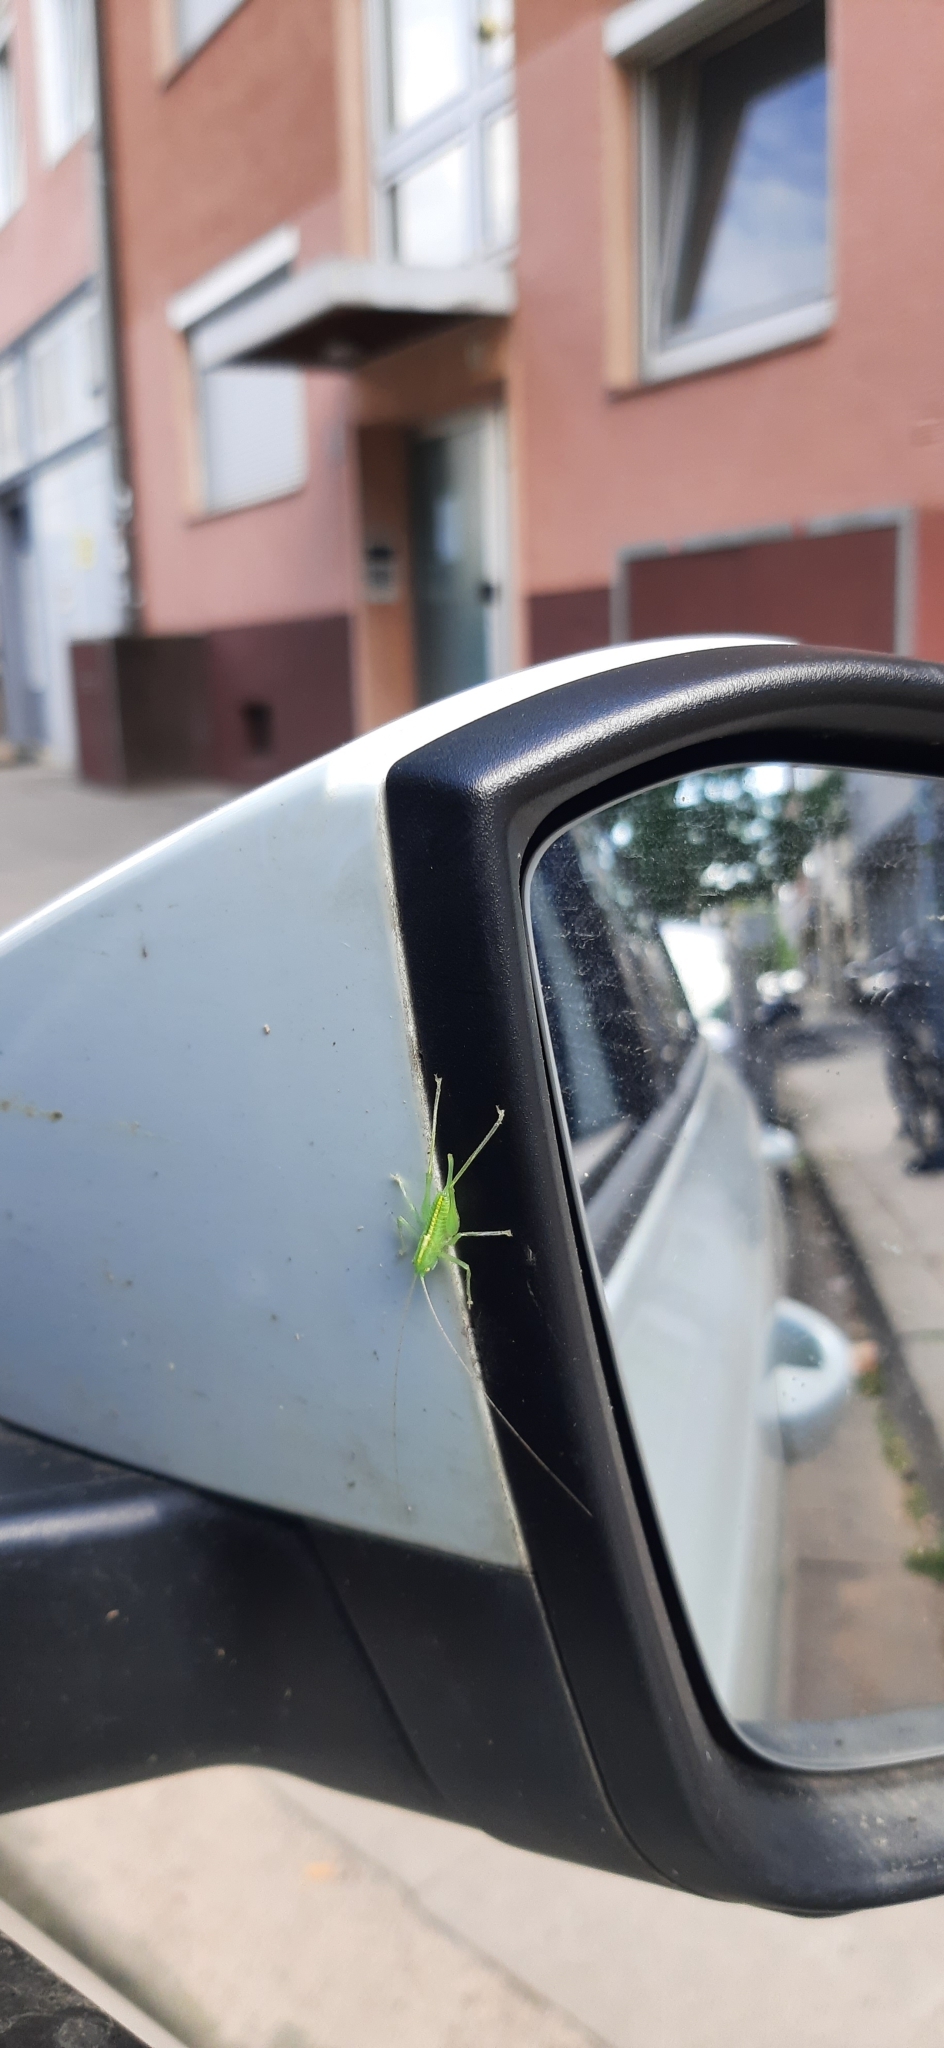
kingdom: Animalia
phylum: Arthropoda
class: Insecta
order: Orthoptera
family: Tettigoniidae
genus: Meconema
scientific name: Meconema meridionale
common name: Southern oak bush-cricket
